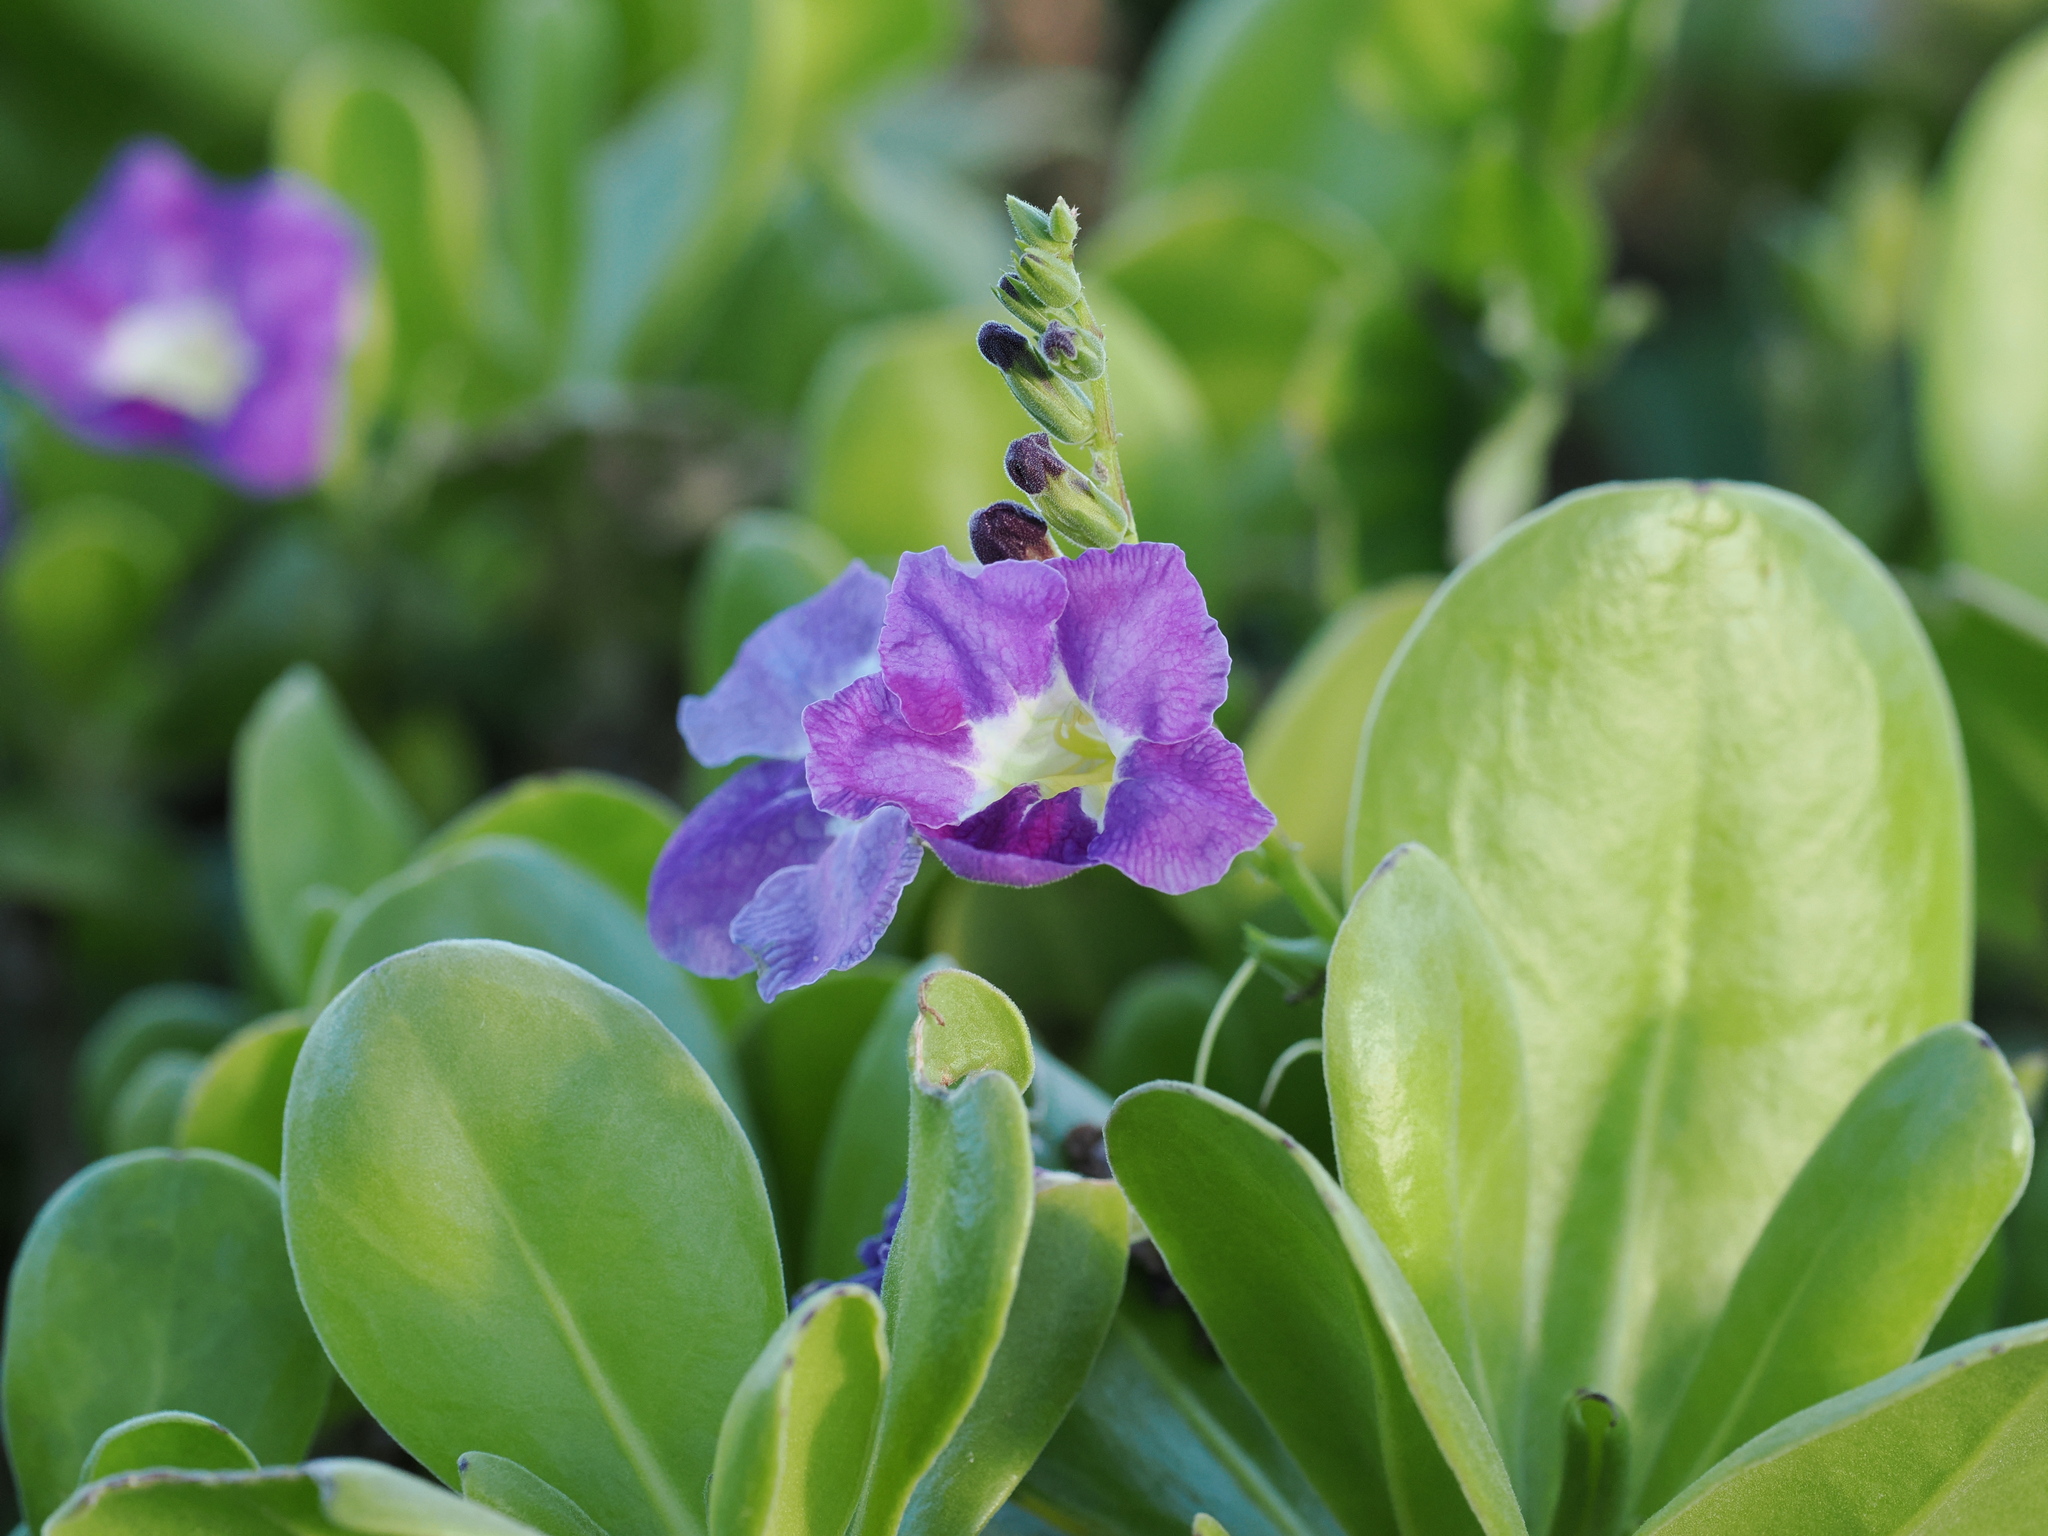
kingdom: Plantae
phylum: Tracheophyta
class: Magnoliopsida
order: Lamiales
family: Acanthaceae
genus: Asystasia
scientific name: Asystasia gangetica
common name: Chinese violet
